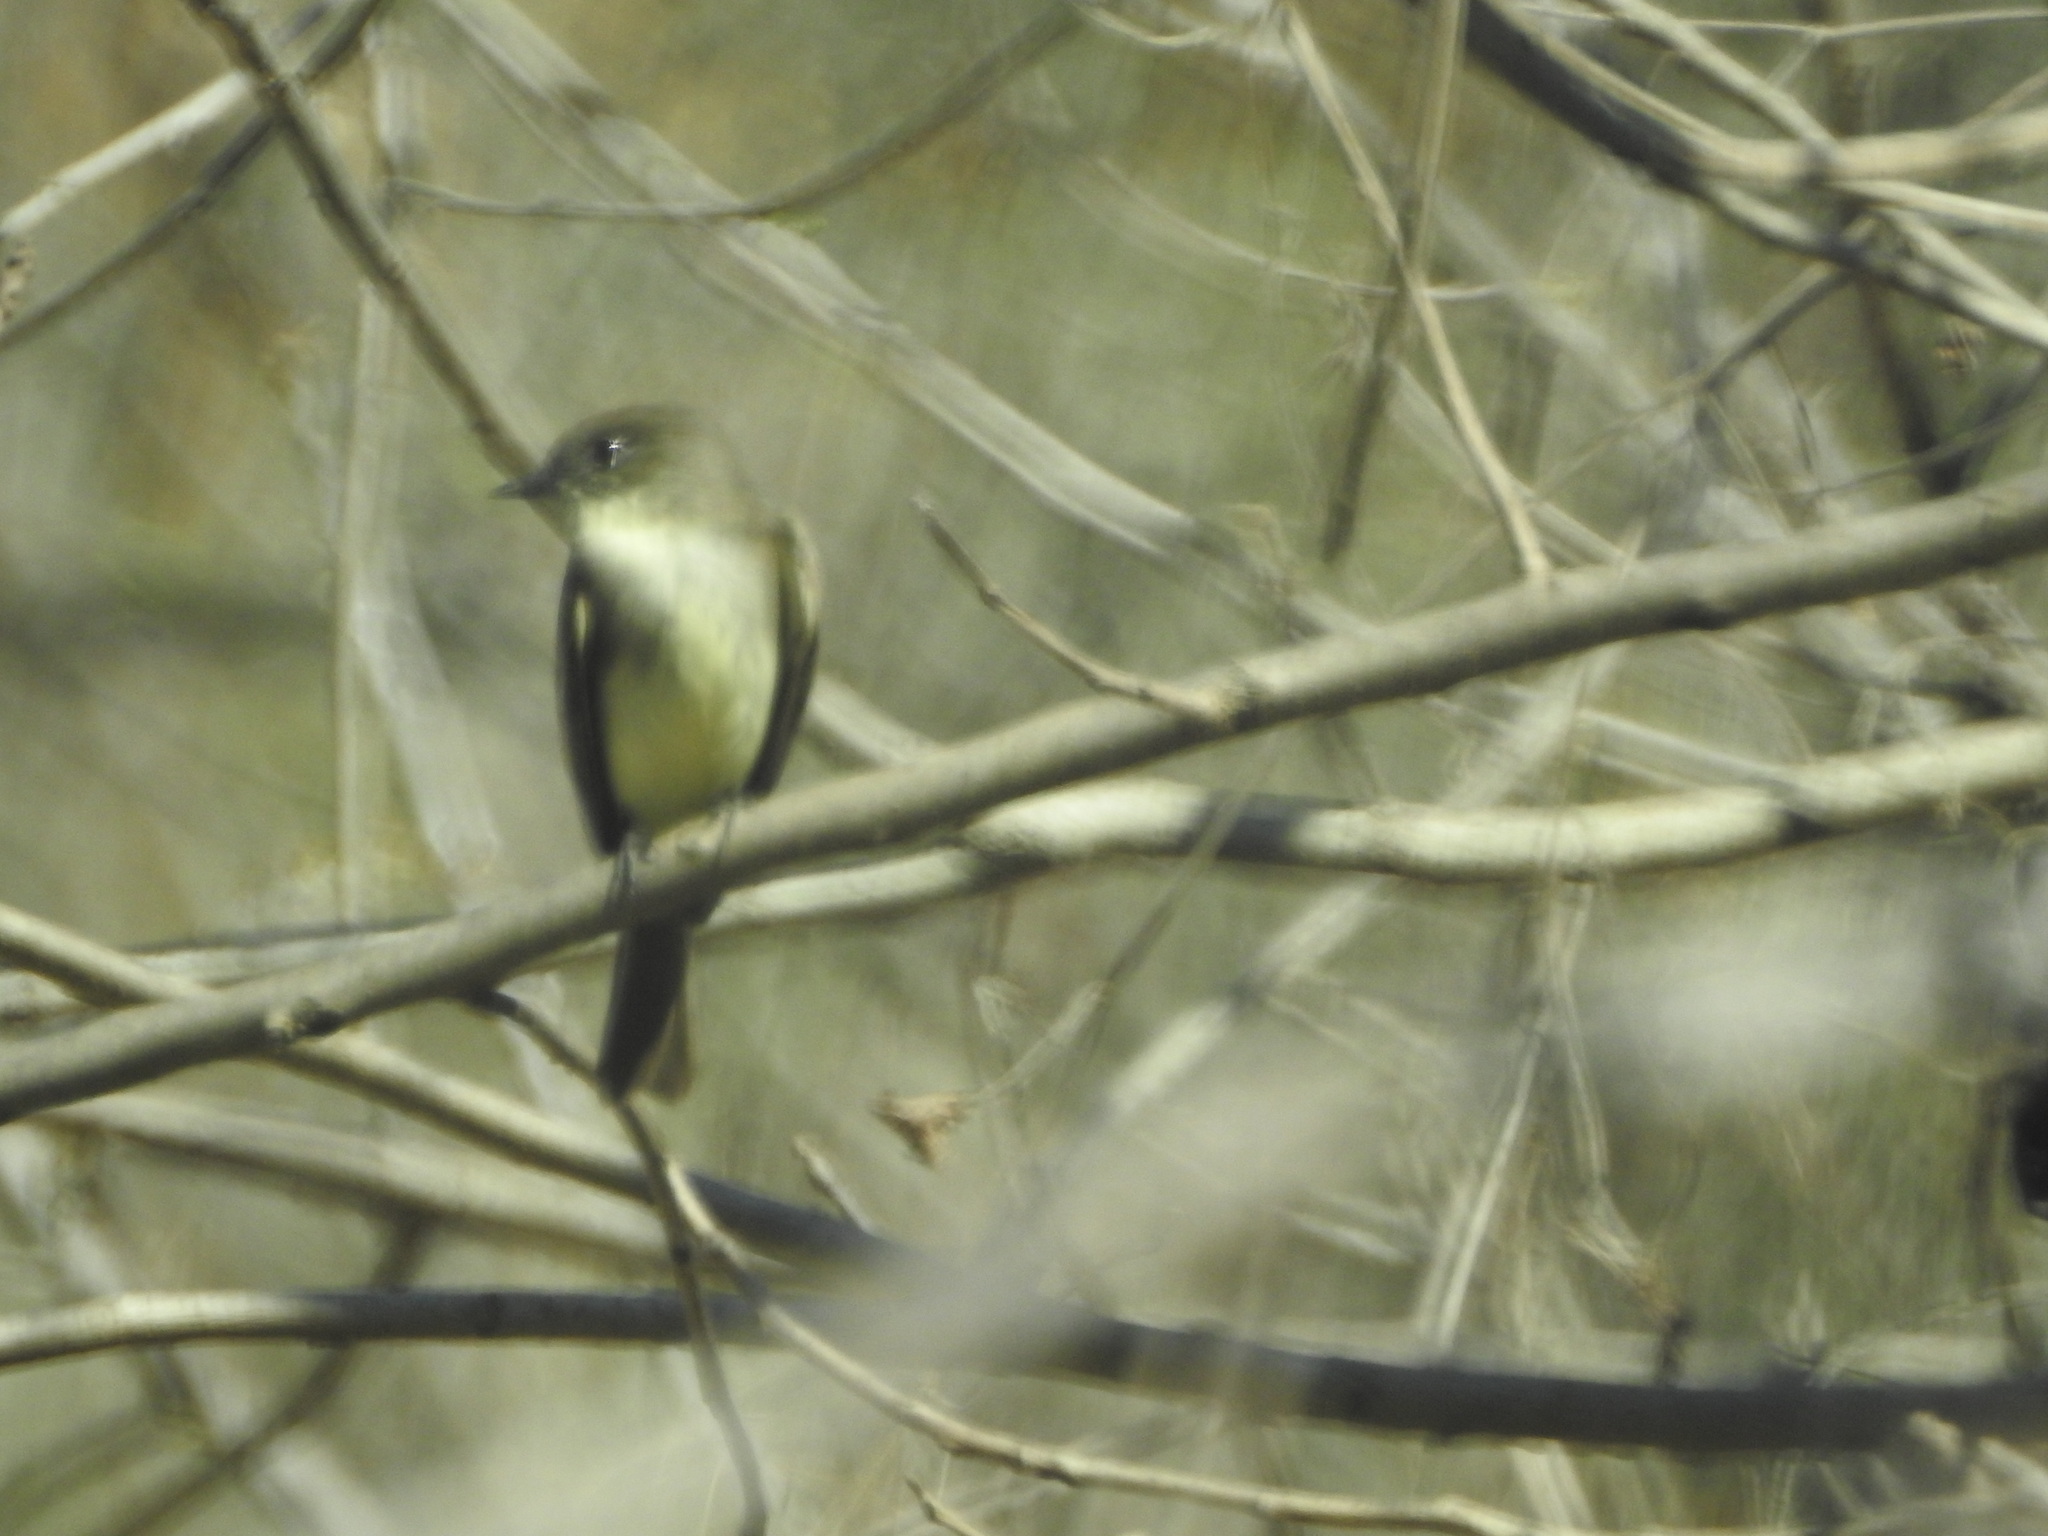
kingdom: Animalia
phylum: Chordata
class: Aves
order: Passeriformes
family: Tyrannidae
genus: Sayornis
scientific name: Sayornis phoebe
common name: Eastern phoebe
